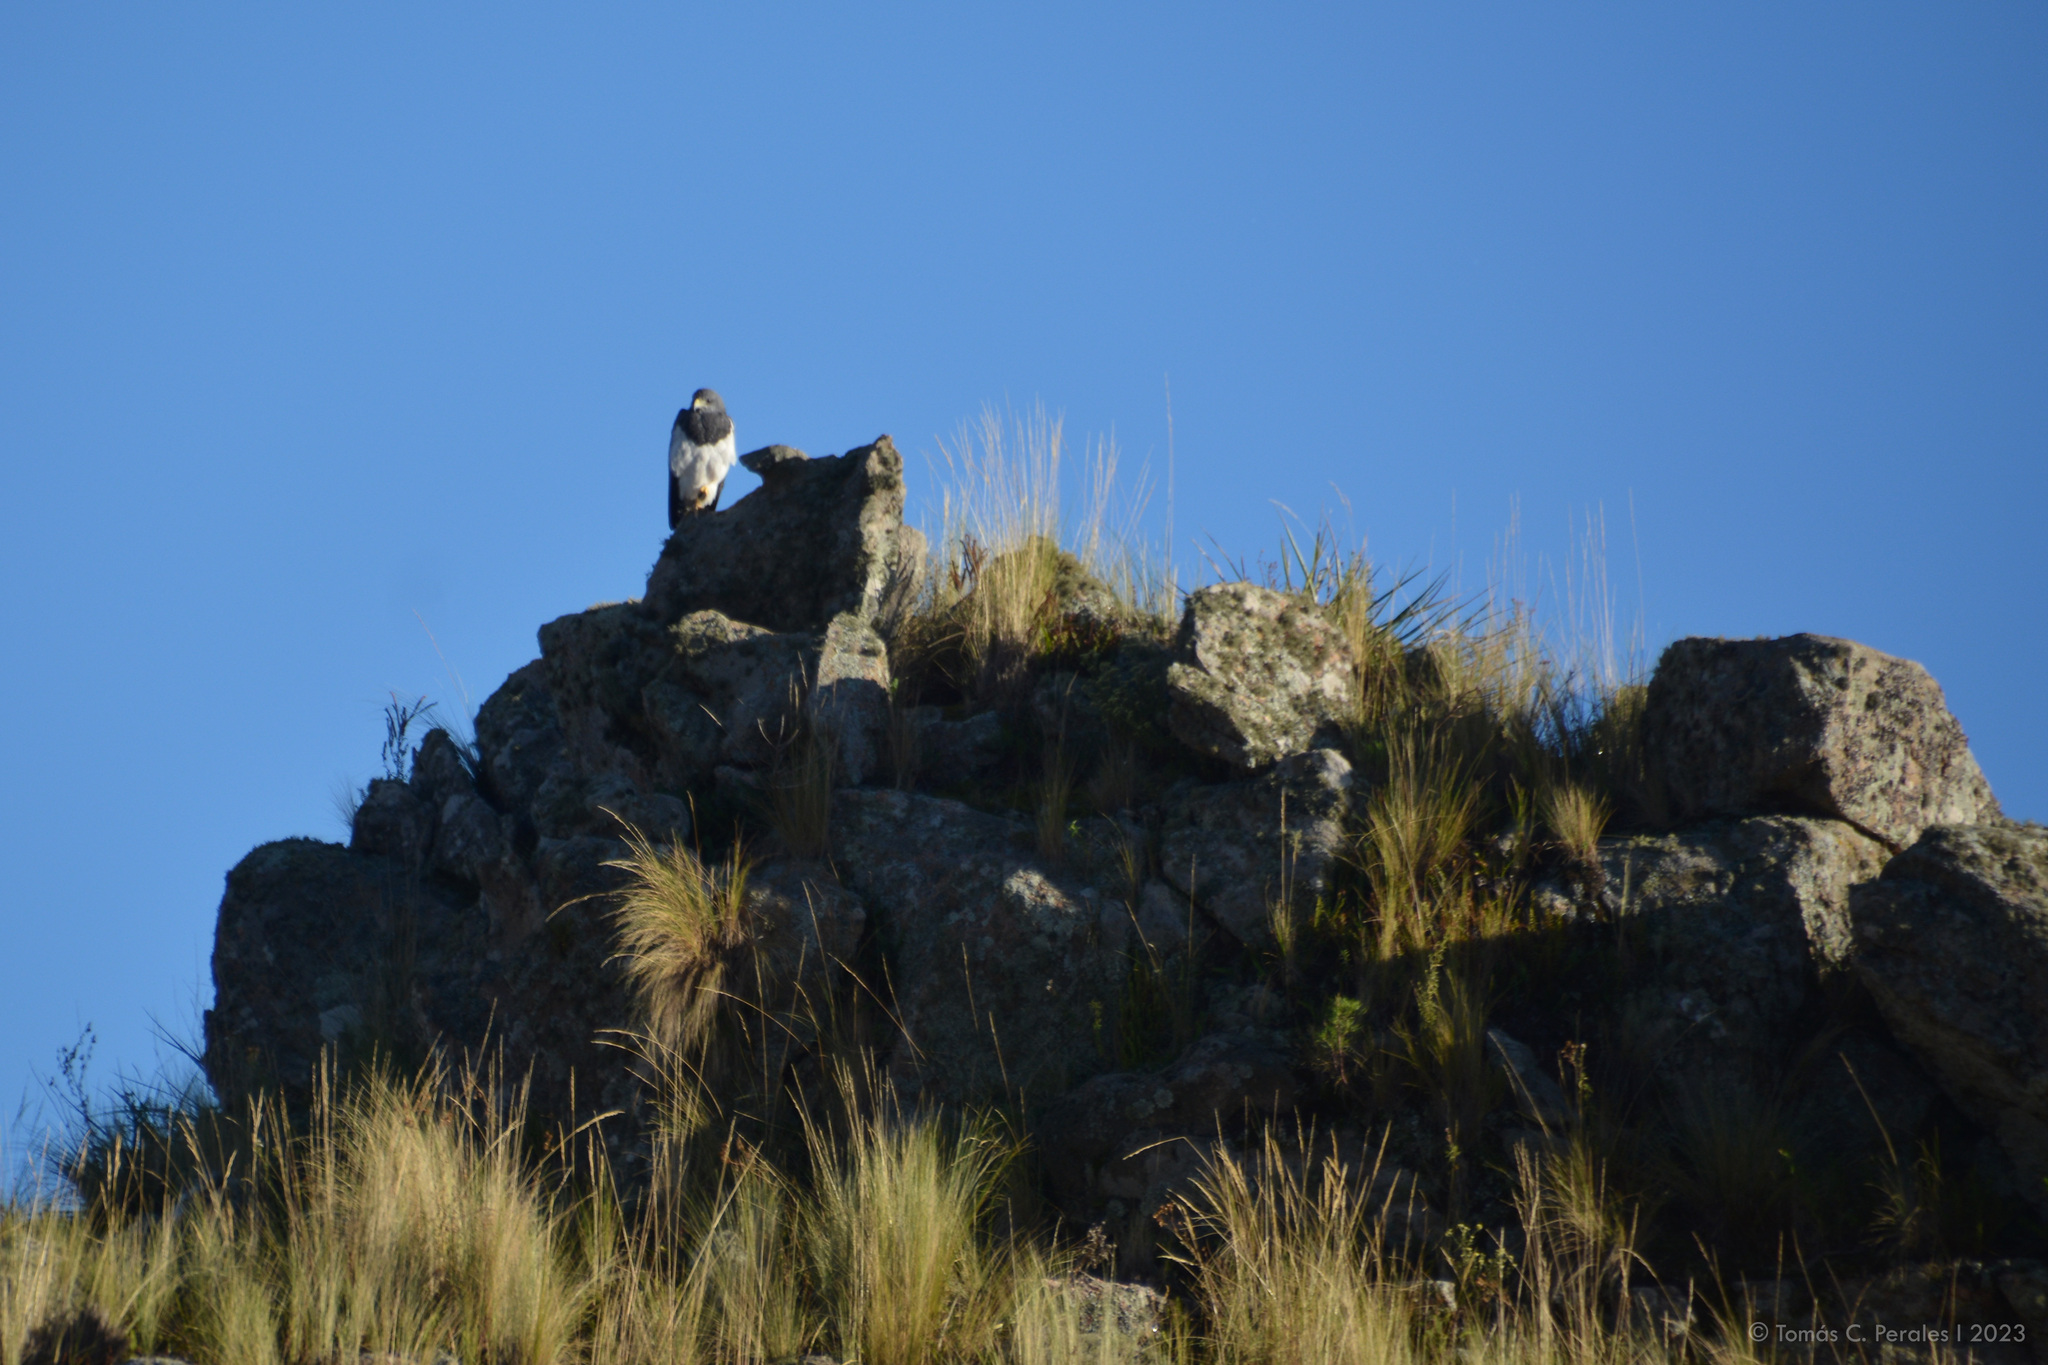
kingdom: Animalia
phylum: Chordata
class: Aves
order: Accipitriformes
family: Accipitridae
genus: Geranoaetus
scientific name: Geranoaetus melanoleucus
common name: Black-chested buzzard-eagle
